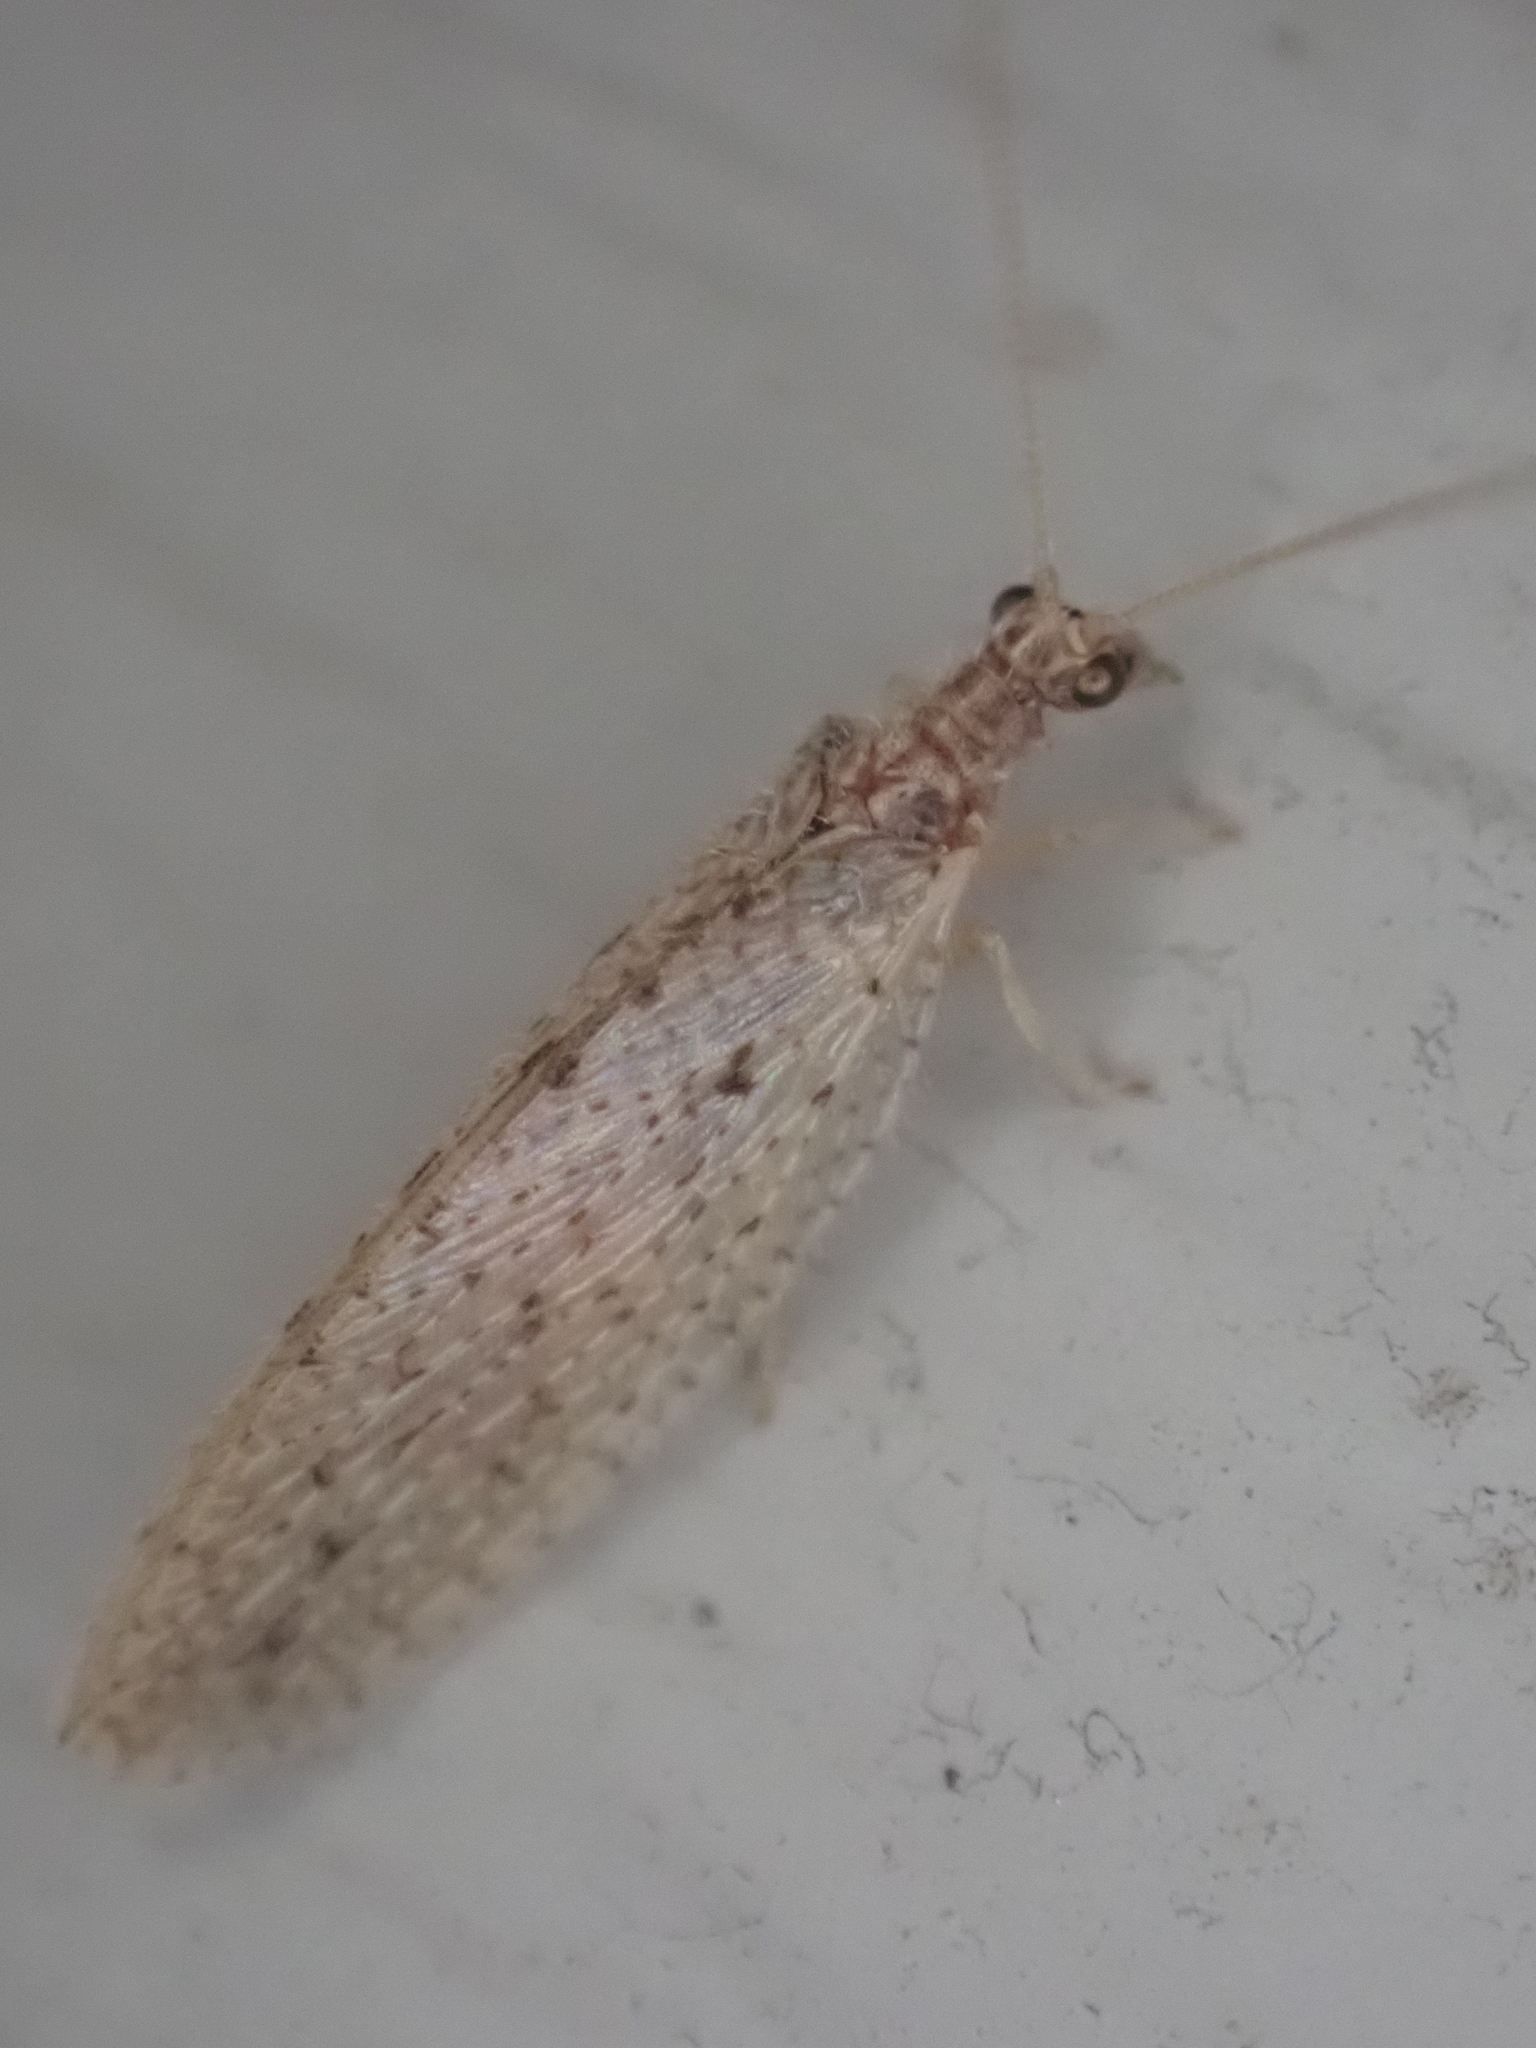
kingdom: Animalia
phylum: Arthropoda
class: Insecta
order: Neuroptera
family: Hemerobiidae
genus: Micromus
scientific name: Micromus subanticus
